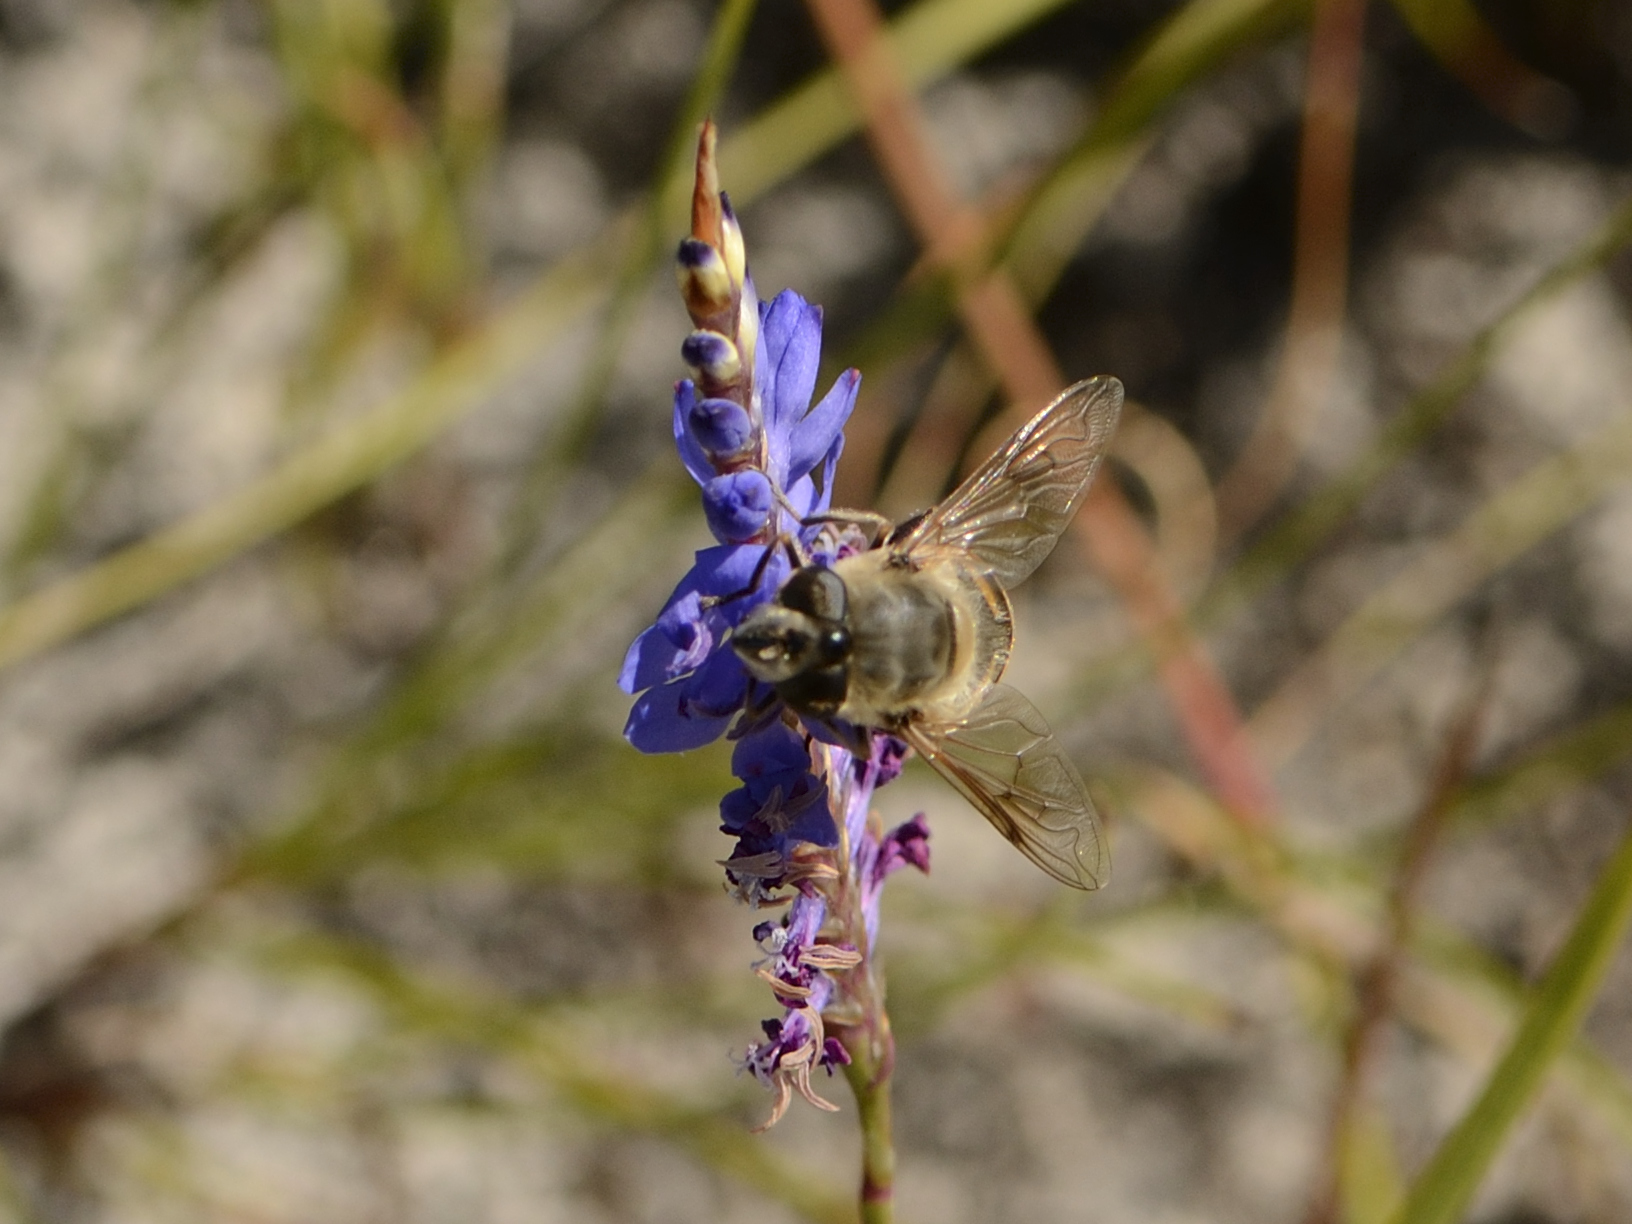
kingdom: Animalia
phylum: Arthropoda
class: Insecta
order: Diptera
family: Syrphidae
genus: Eristalis
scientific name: Eristalis tenax
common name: Drone fly
